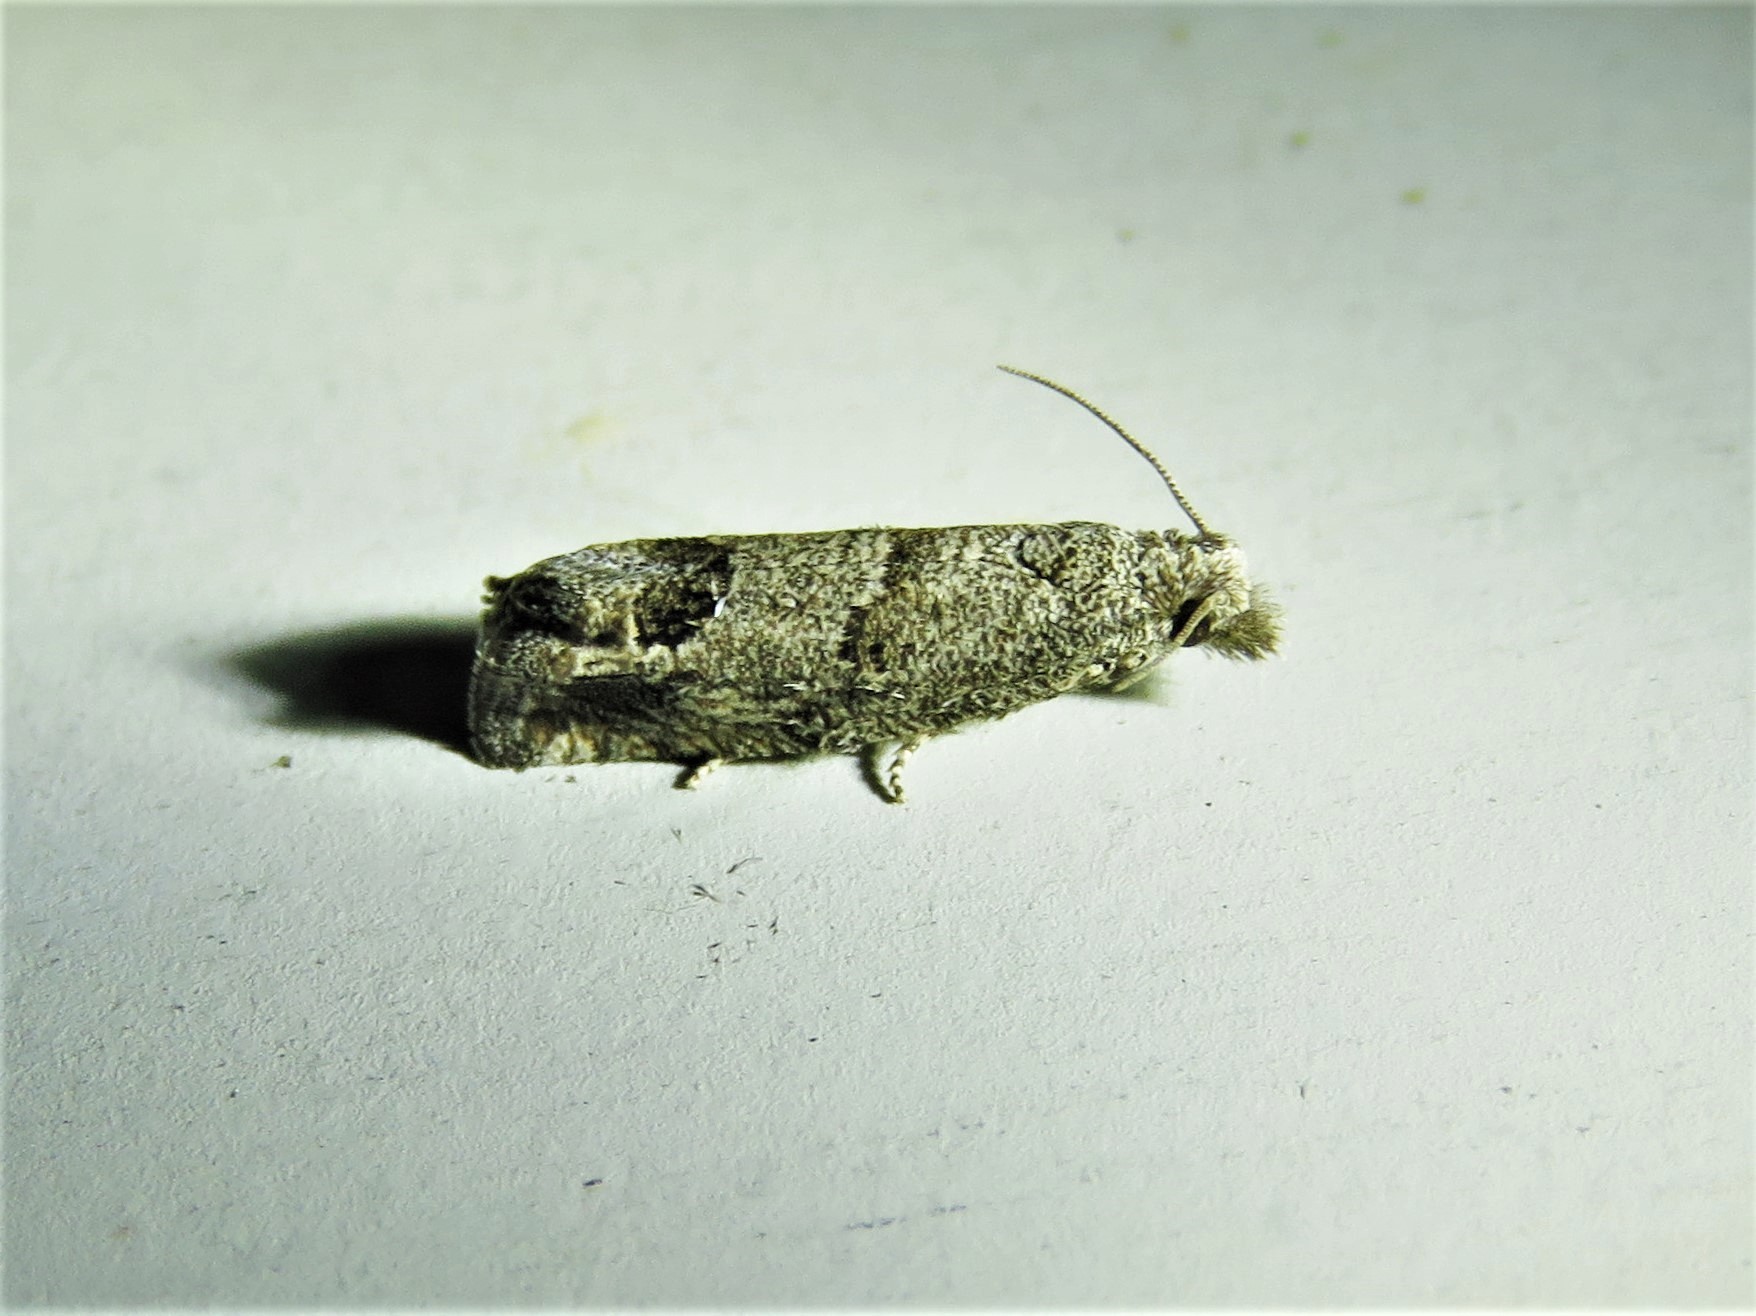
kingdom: Animalia
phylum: Arthropoda
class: Insecta
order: Lepidoptera
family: Tortricidae
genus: Suleima
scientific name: Suleima helianthana
